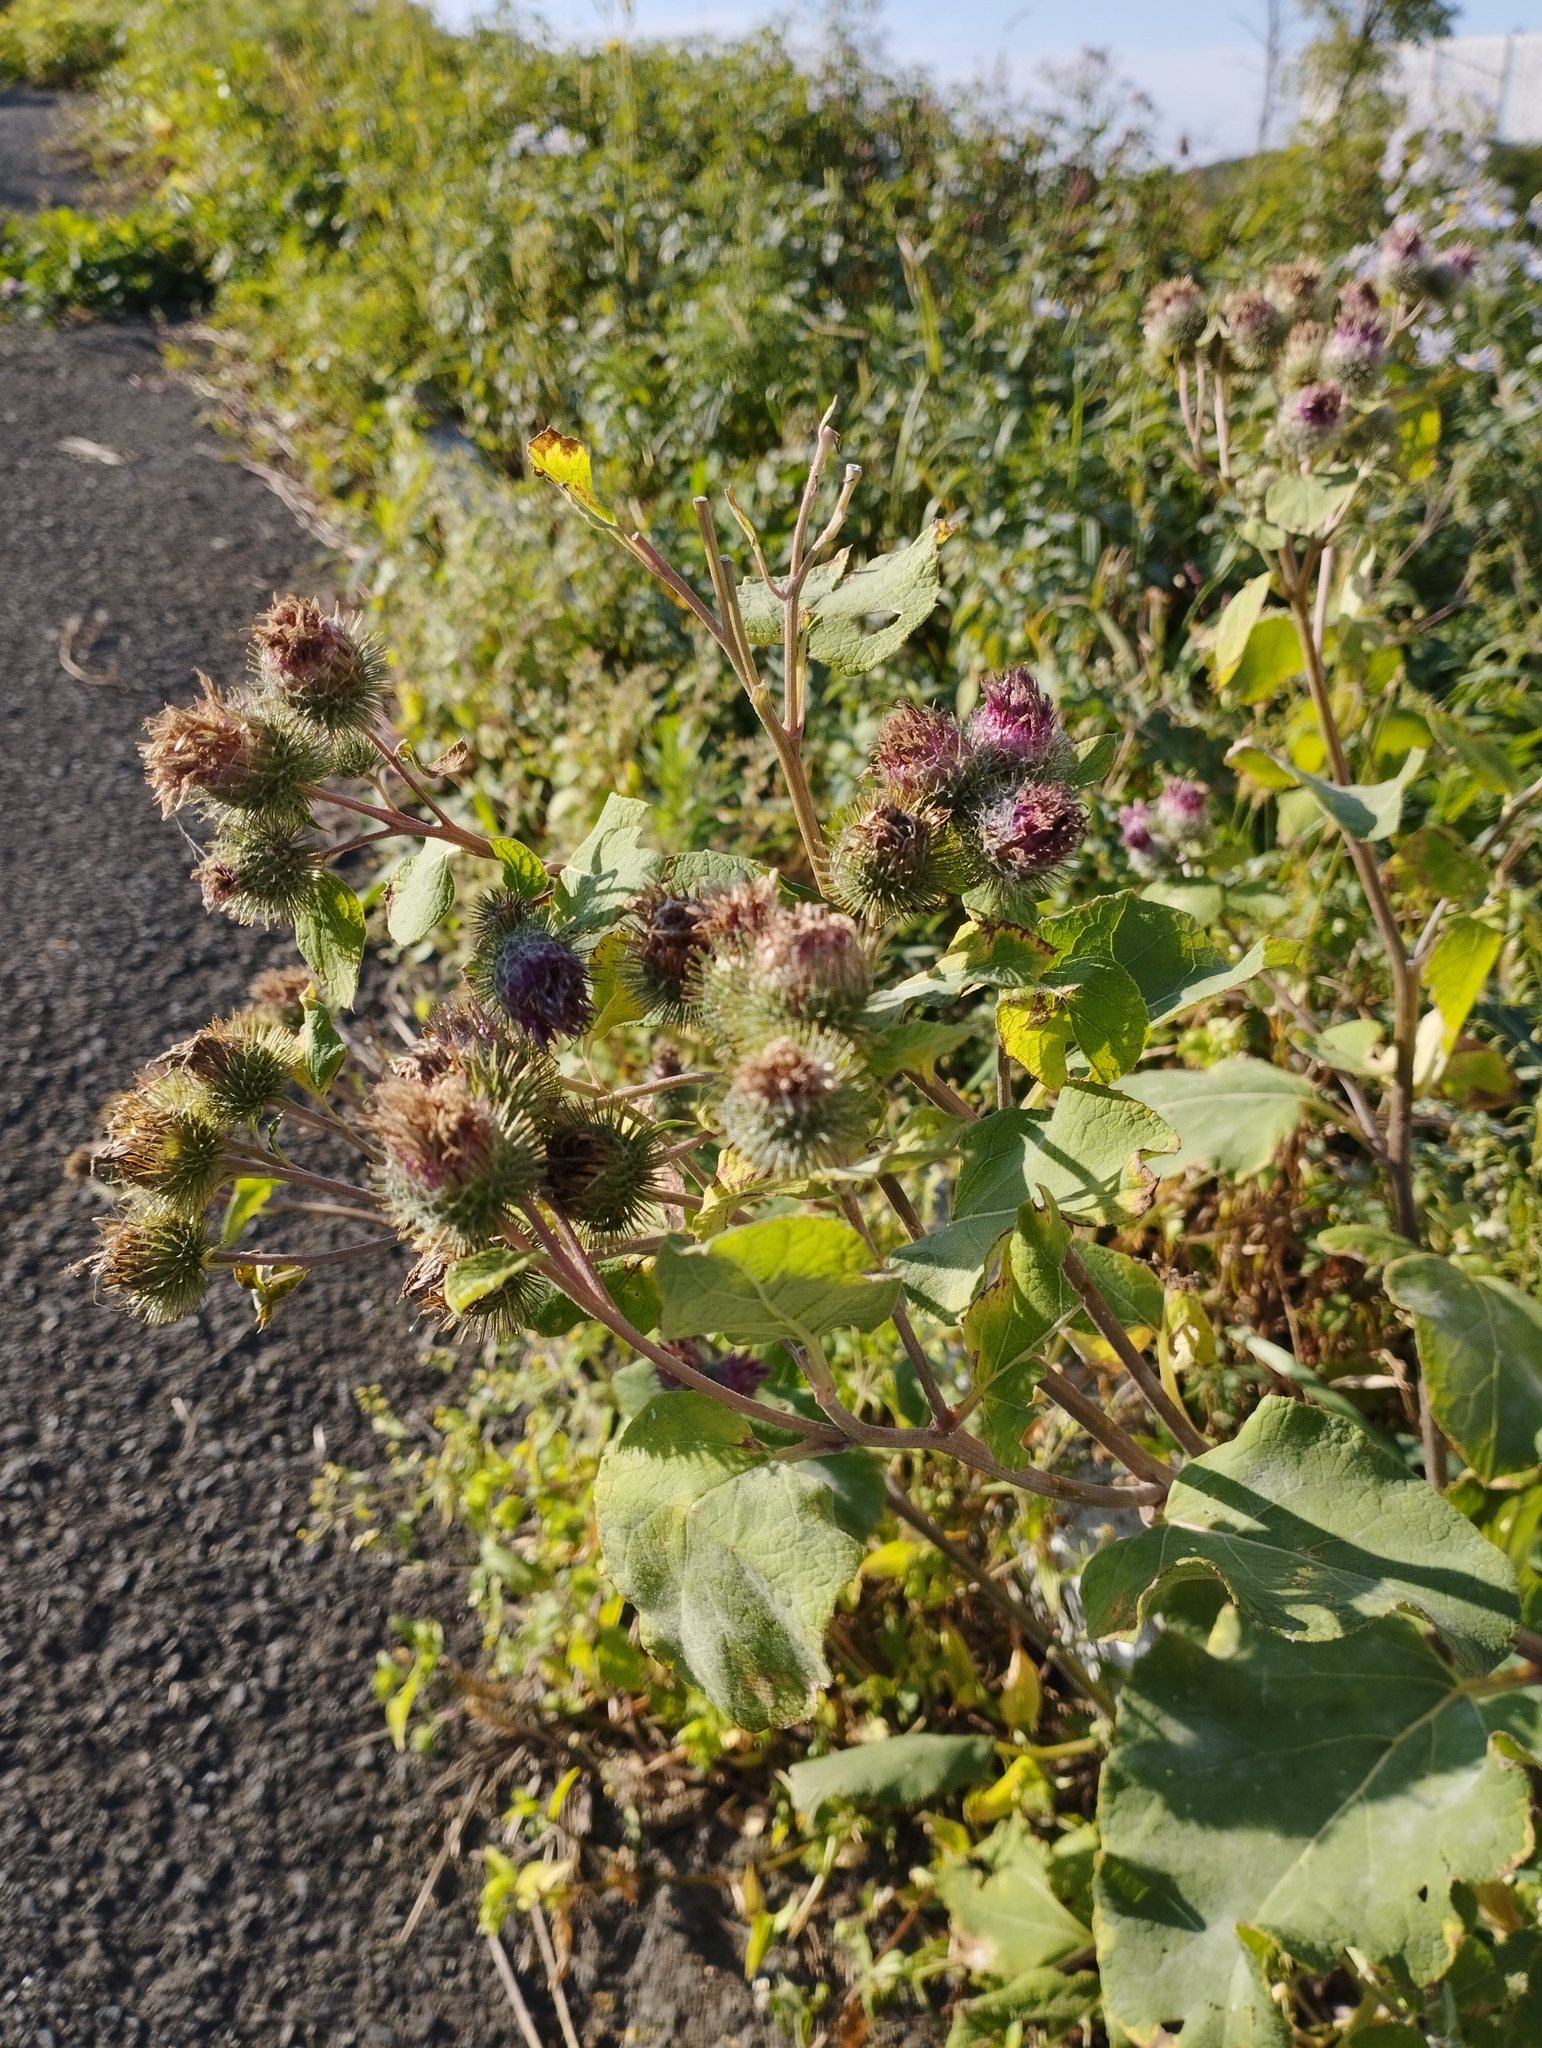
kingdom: Plantae
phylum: Tracheophyta
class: Magnoliopsida
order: Asterales
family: Asteraceae
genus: Arctium
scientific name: Arctium tomentosum
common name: Woolly burdock
